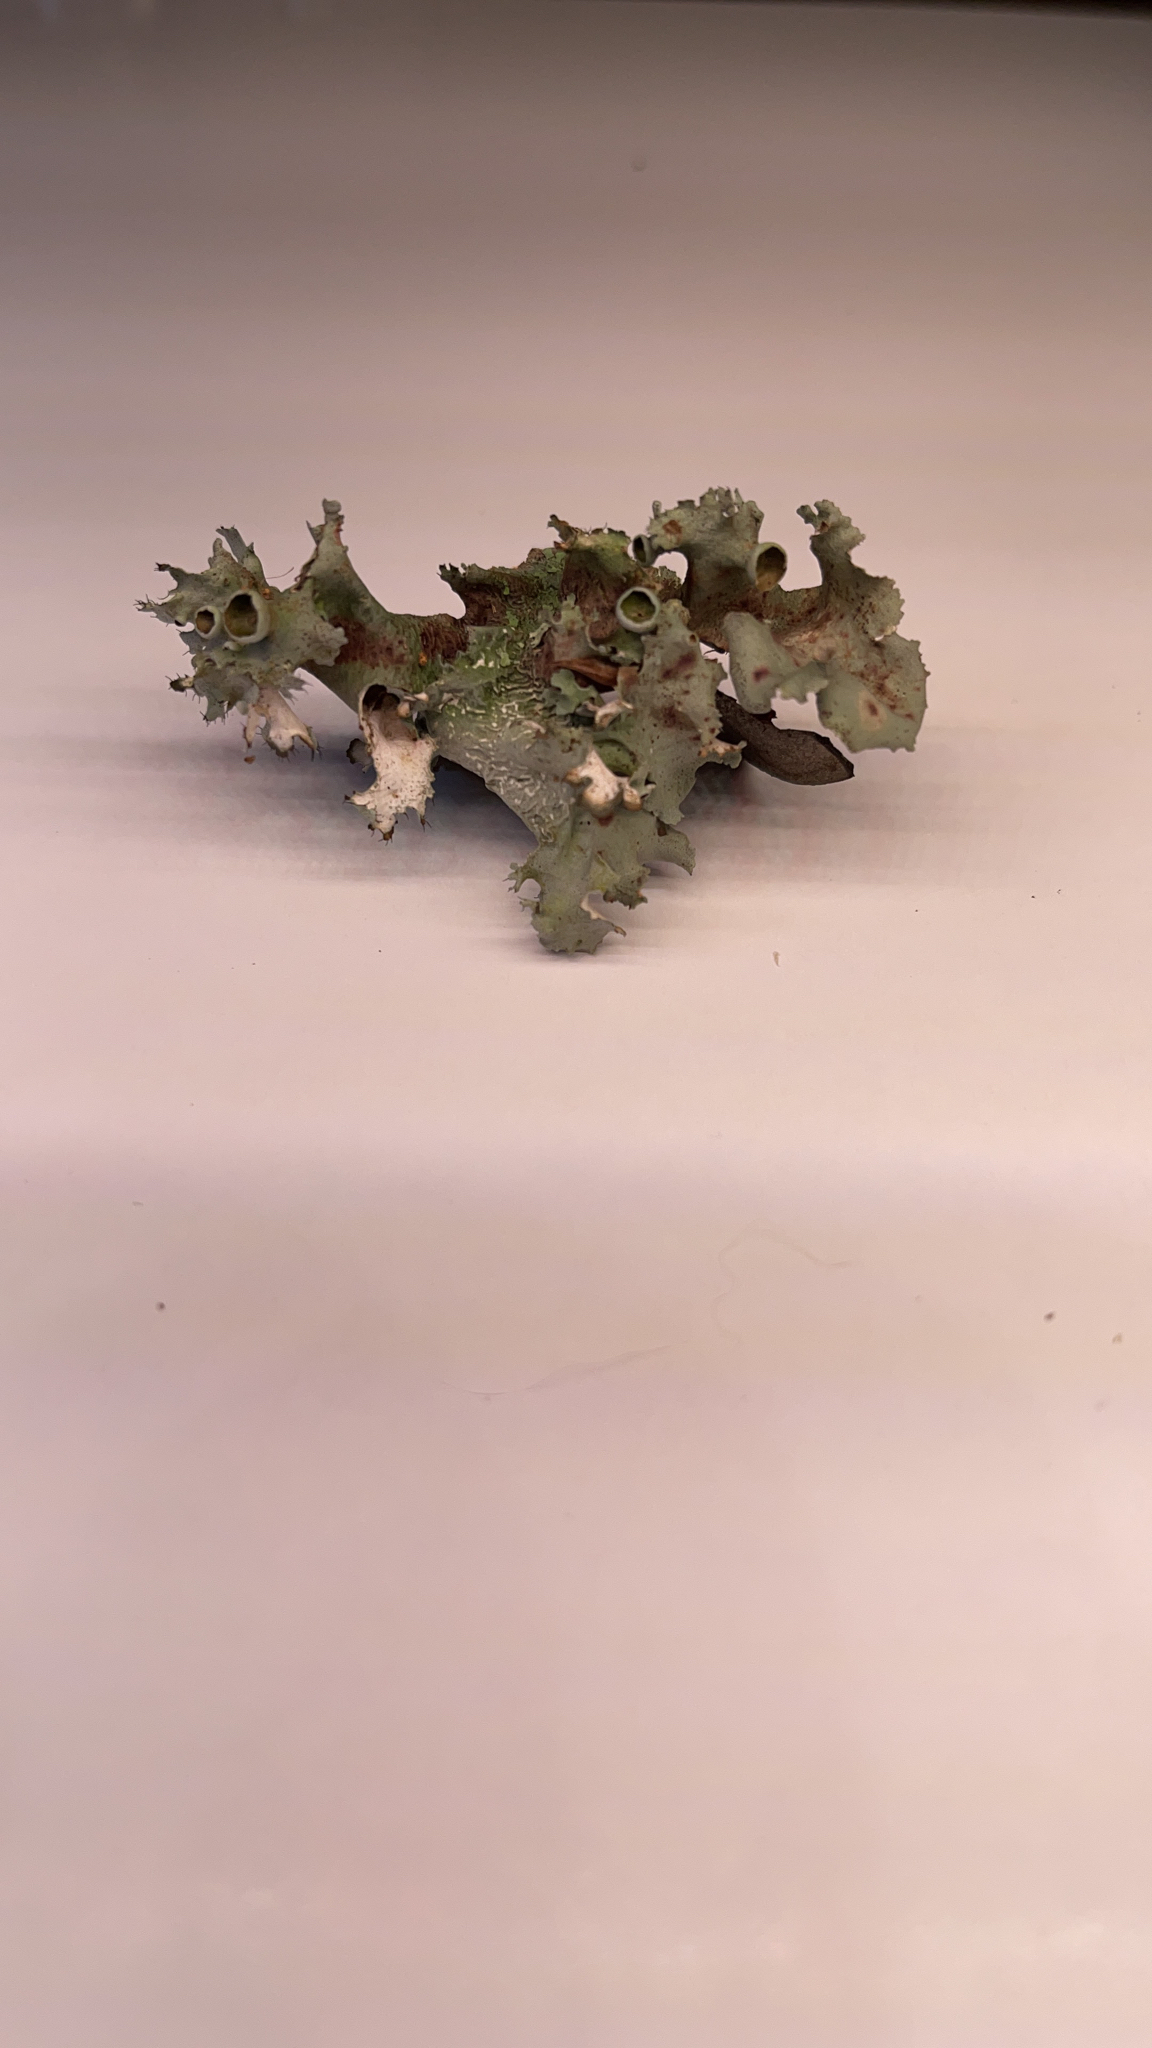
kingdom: Fungi
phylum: Ascomycota
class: Lecanoromycetes
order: Lecanorales
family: Parmeliaceae
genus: Parmotrema
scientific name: Parmotrema perforatum
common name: Perforated ruffle lichen
